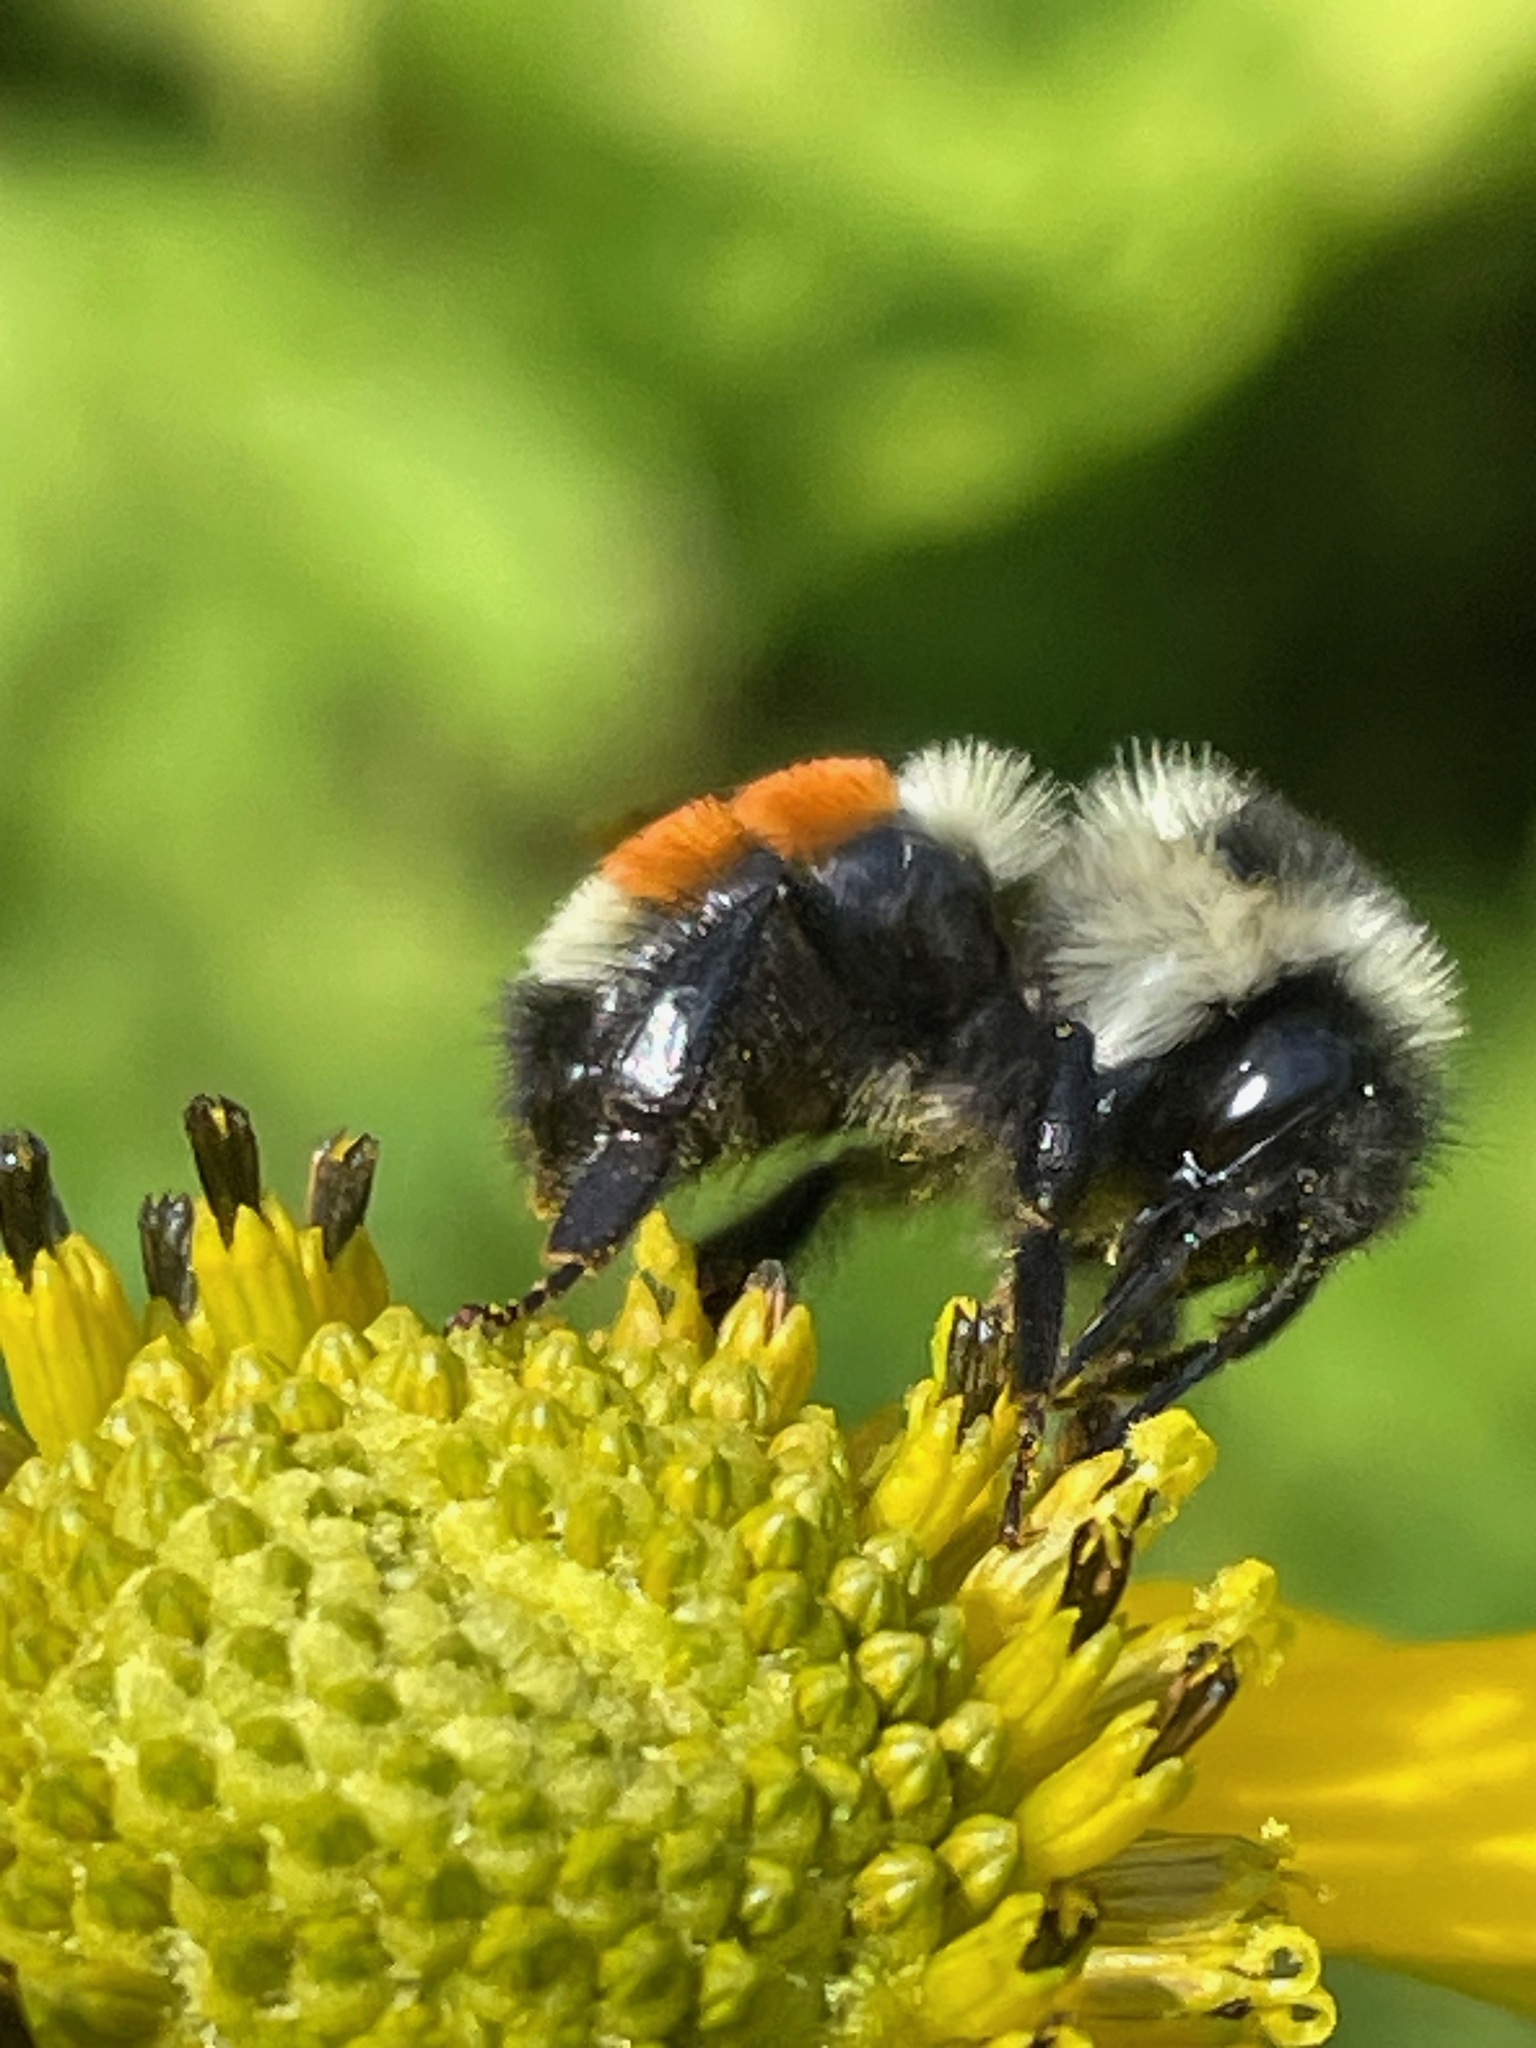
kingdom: Animalia
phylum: Arthropoda
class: Insecta
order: Hymenoptera
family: Apidae
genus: Bombus
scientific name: Bombus ternarius
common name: Tri-colored bumble bee
